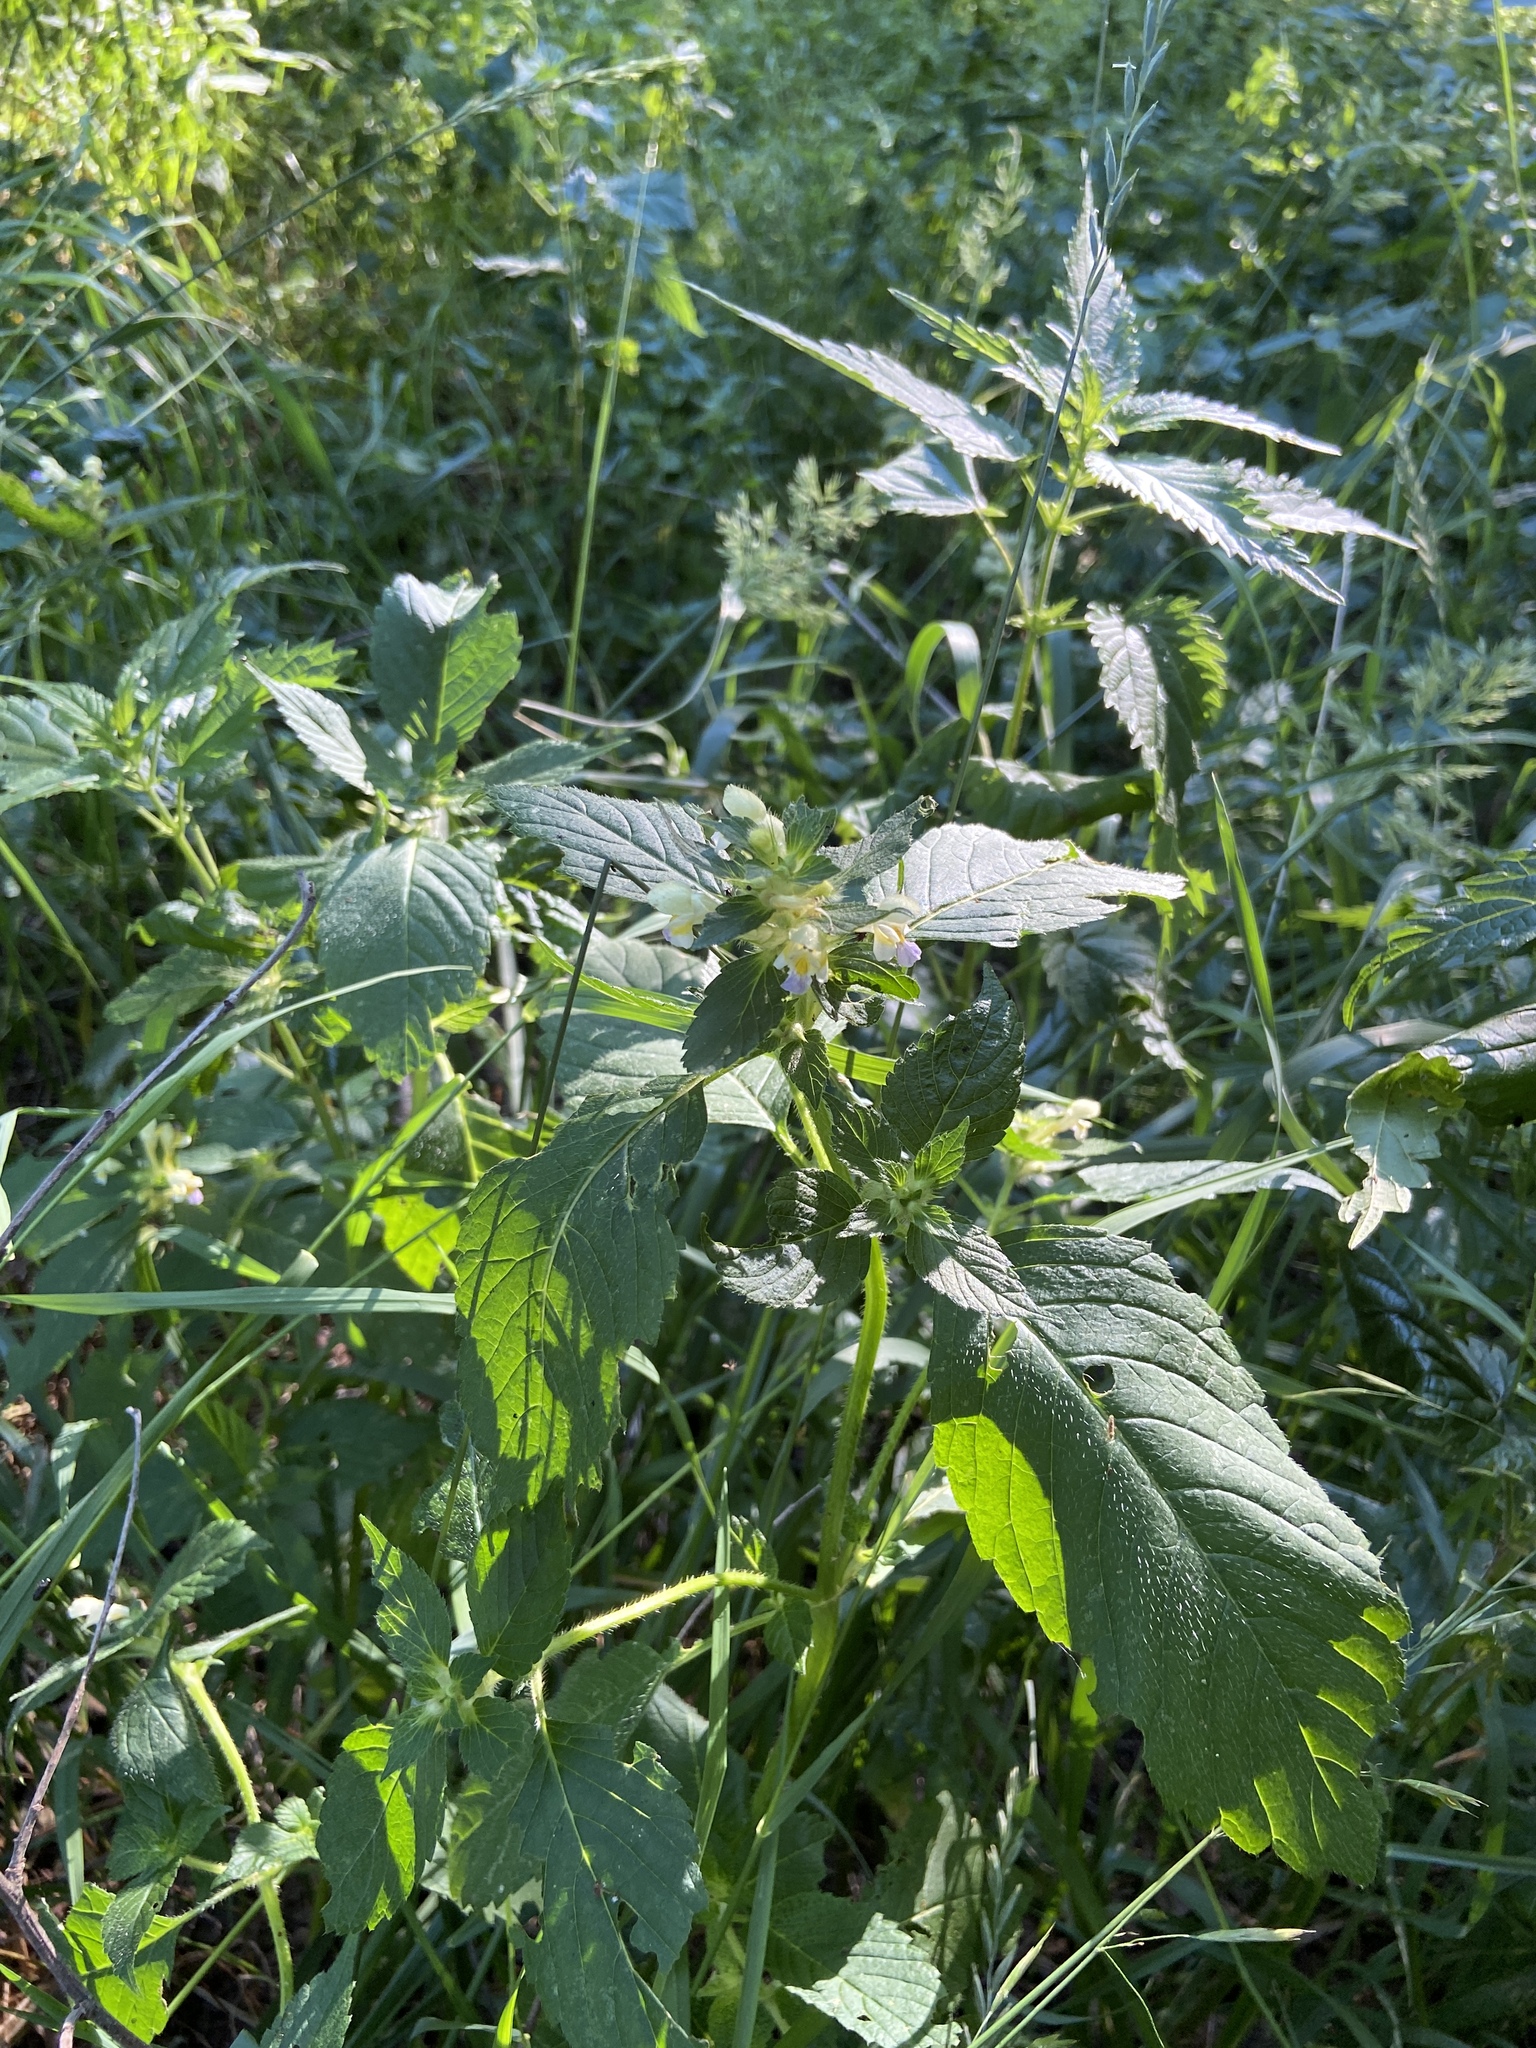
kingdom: Plantae
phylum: Tracheophyta
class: Magnoliopsida
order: Lamiales
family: Lamiaceae
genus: Galeopsis
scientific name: Galeopsis speciosa
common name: Large-flowered hemp-nettle
